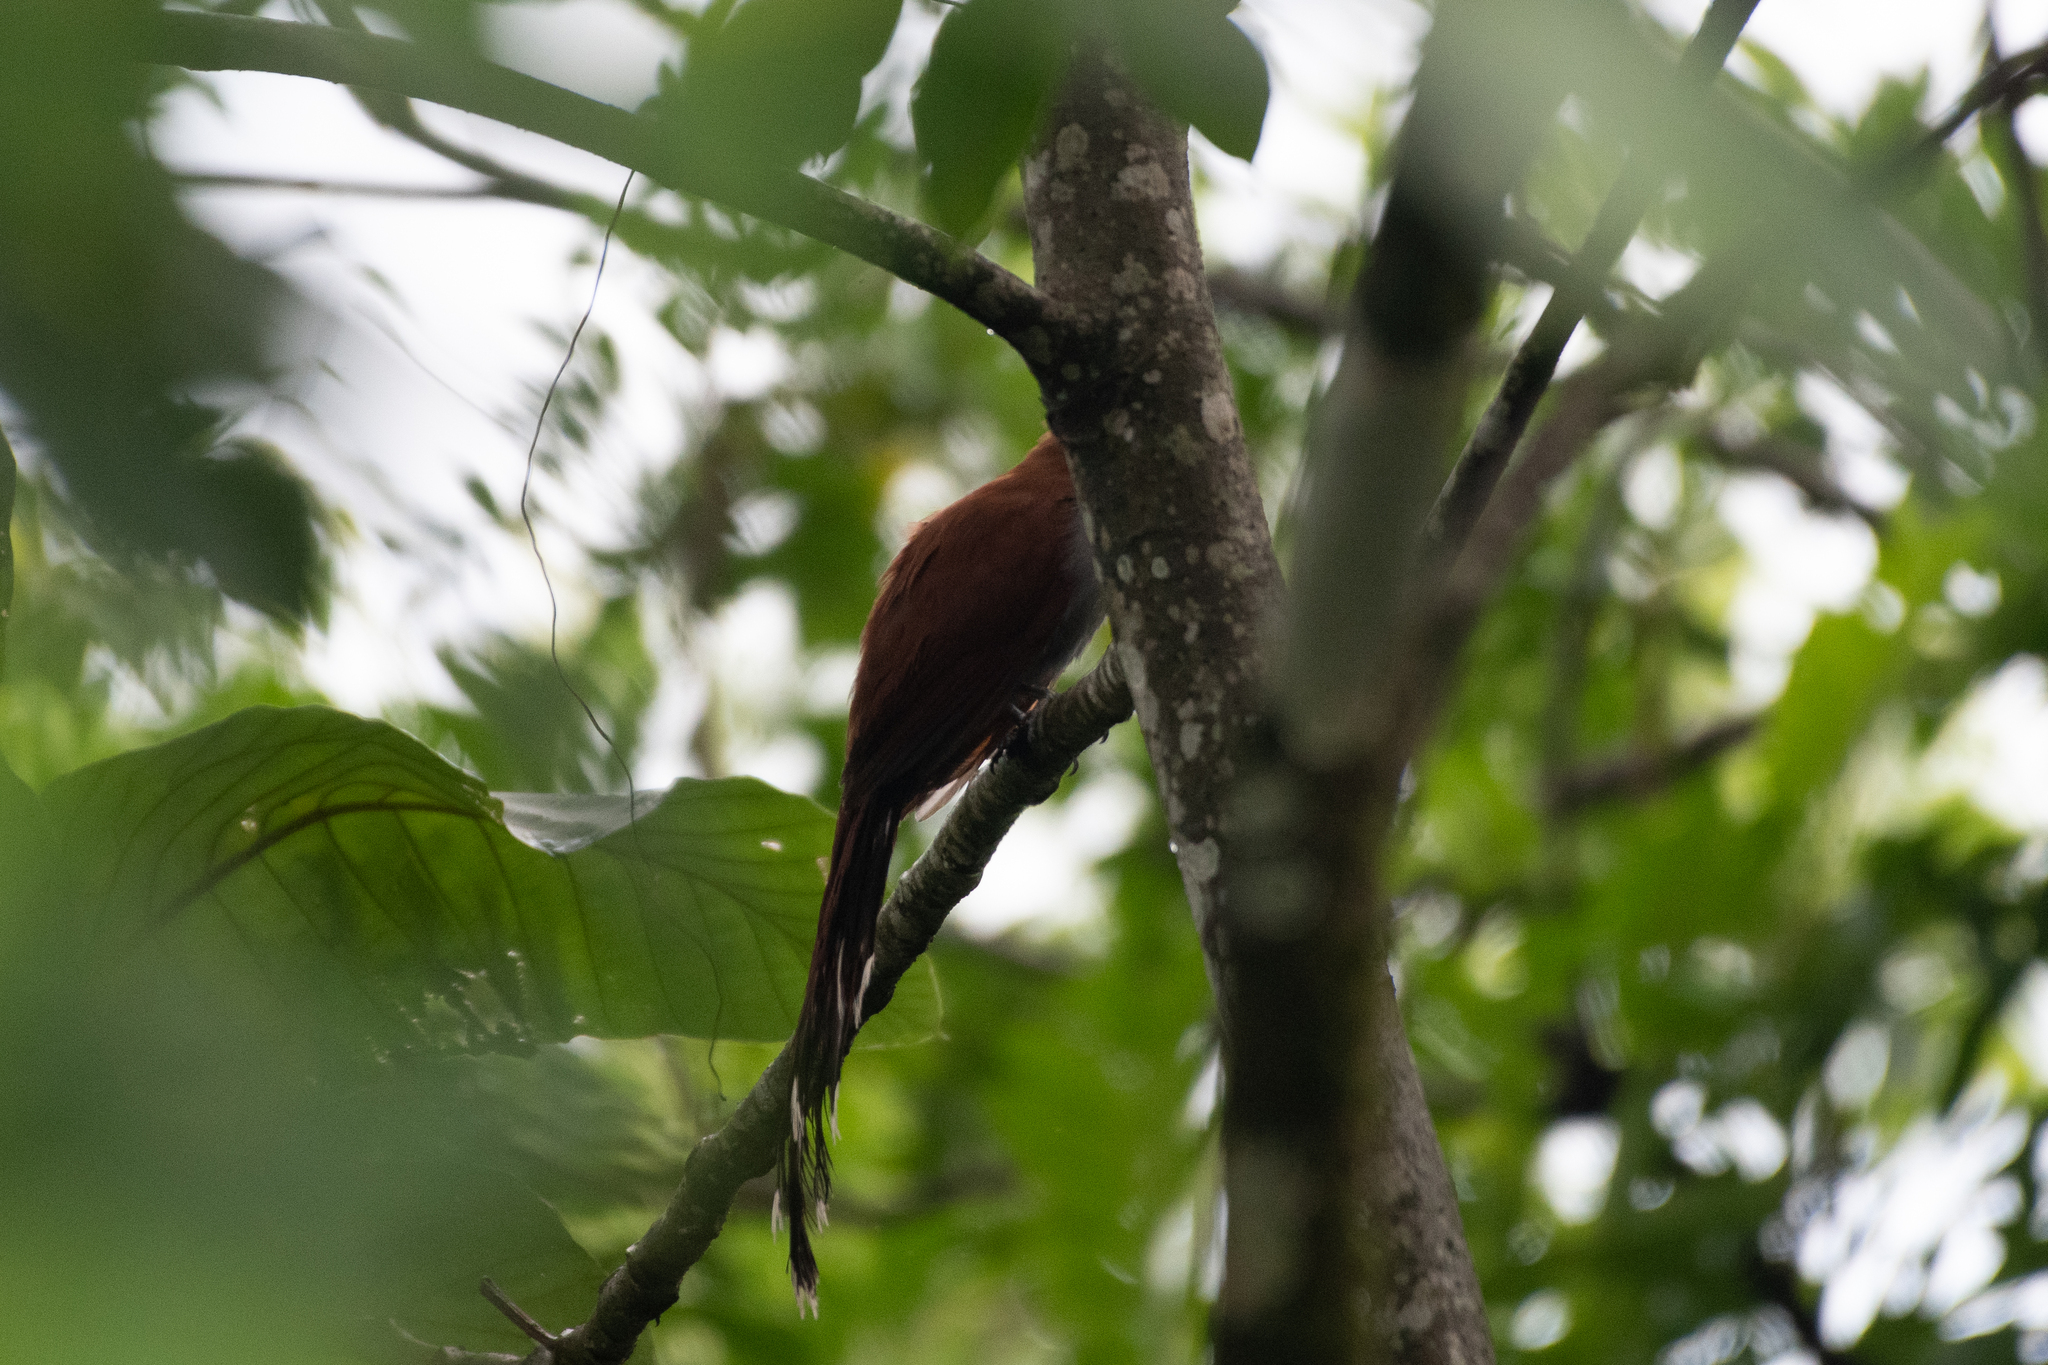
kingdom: Animalia
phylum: Chordata
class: Aves
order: Cuculiformes
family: Cuculidae
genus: Piaya
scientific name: Piaya cayana
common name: Squirrel cuckoo
